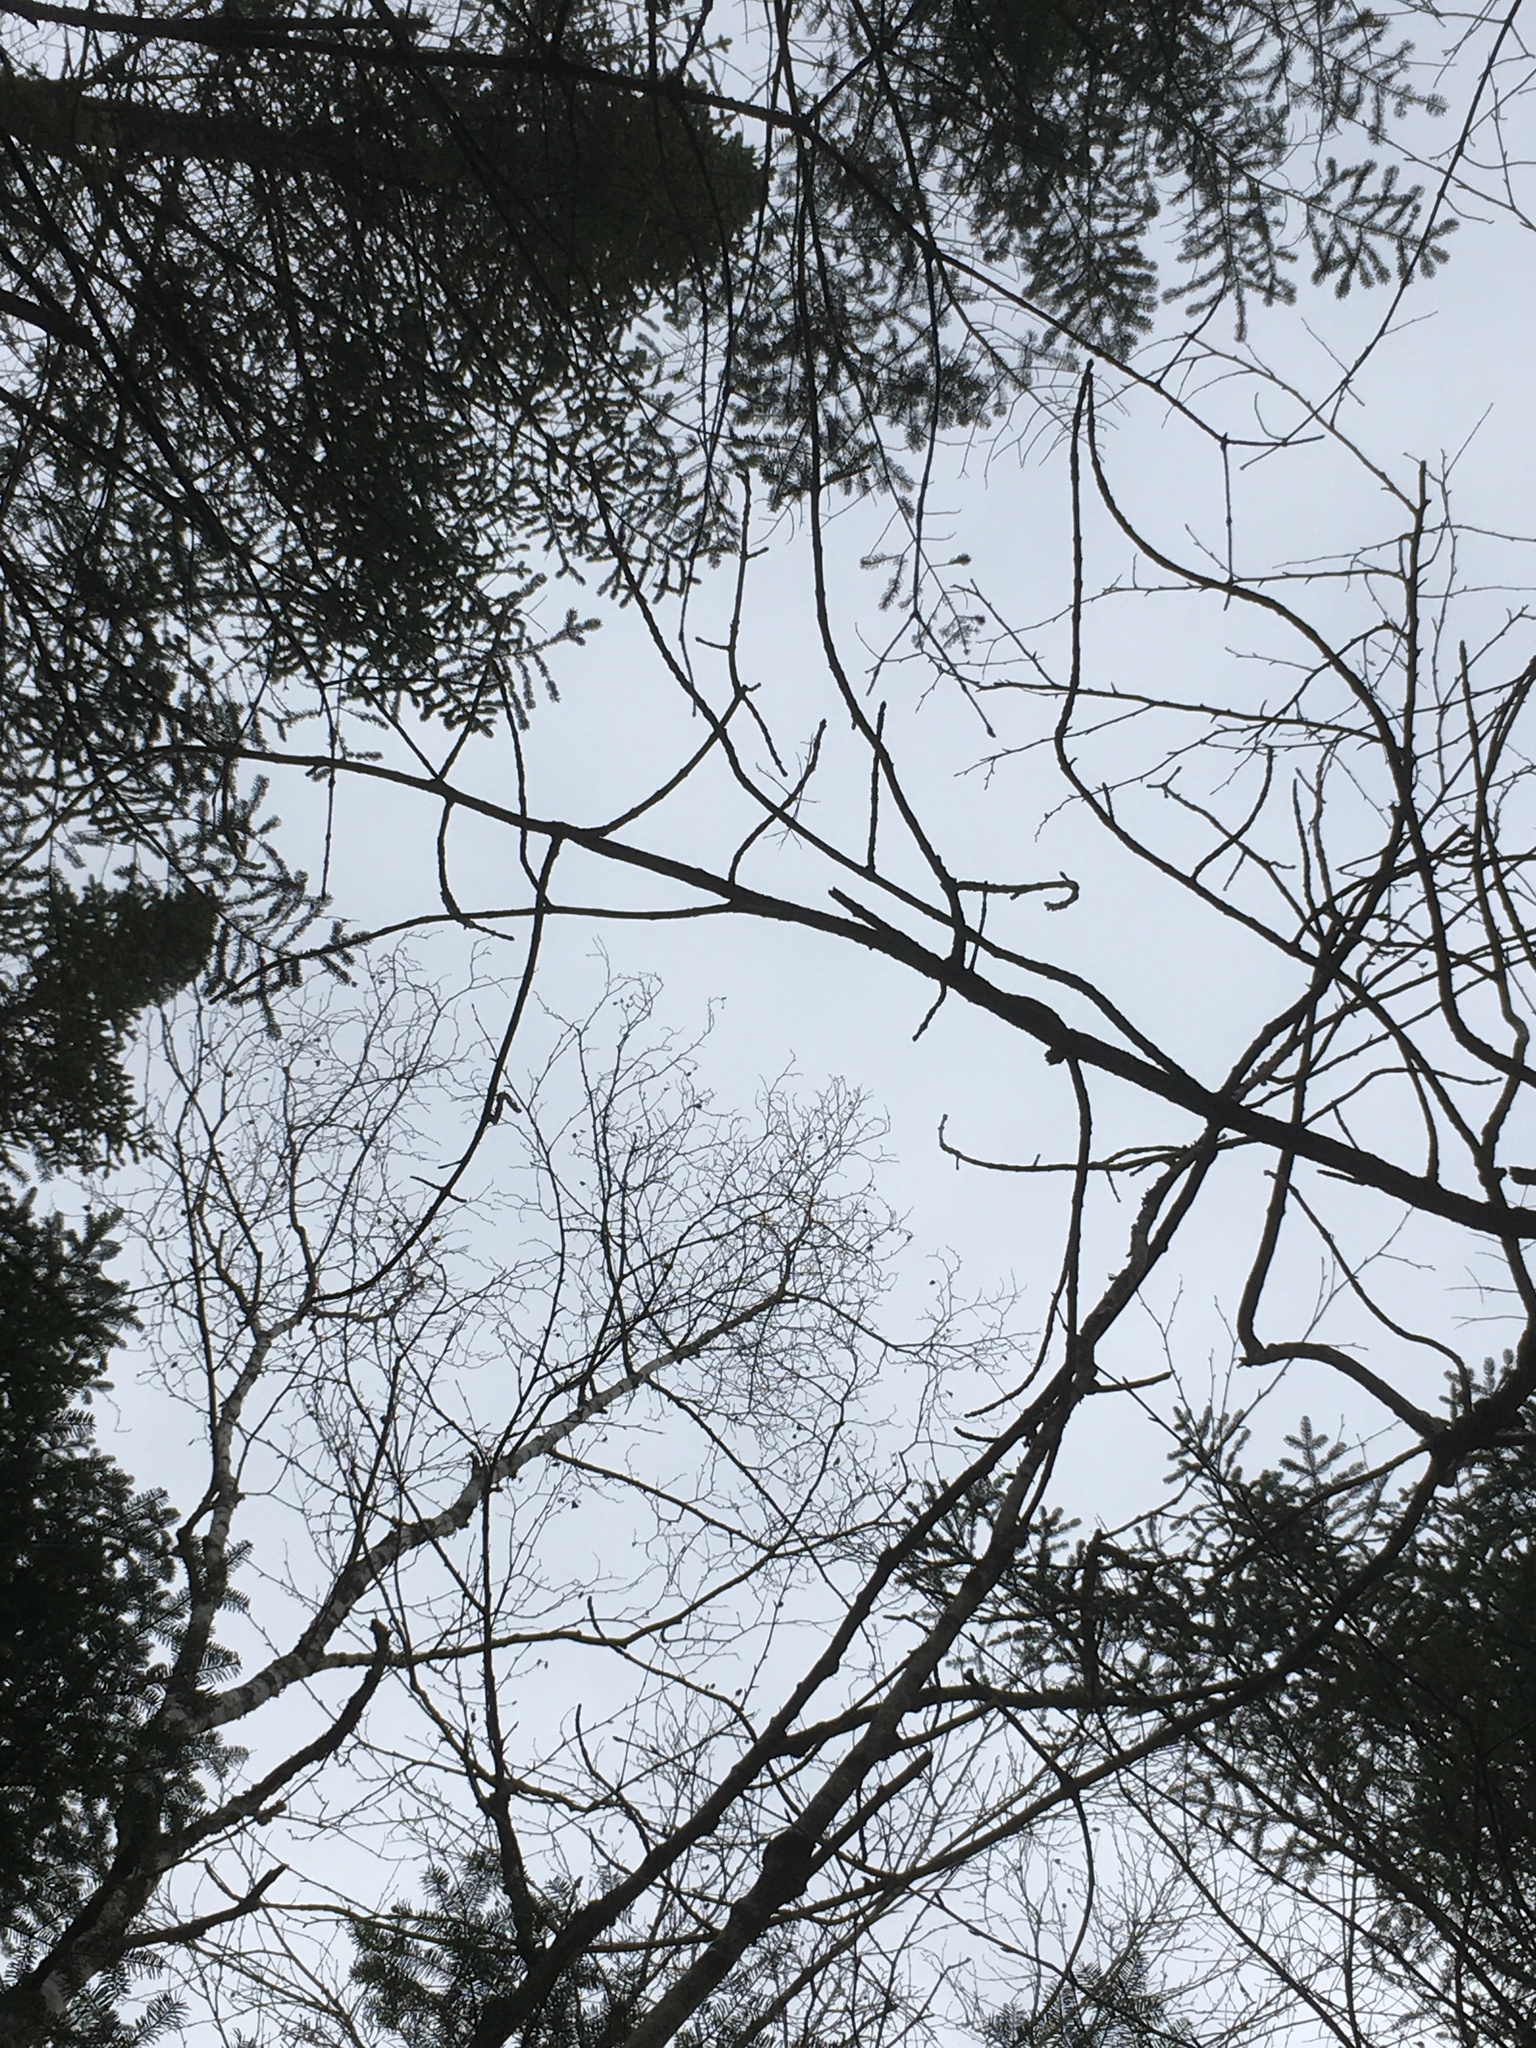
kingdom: Plantae
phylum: Tracheophyta
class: Magnoliopsida
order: Lamiales
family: Oleaceae
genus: Fraxinus
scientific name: Fraxinus nigra
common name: Black ash
